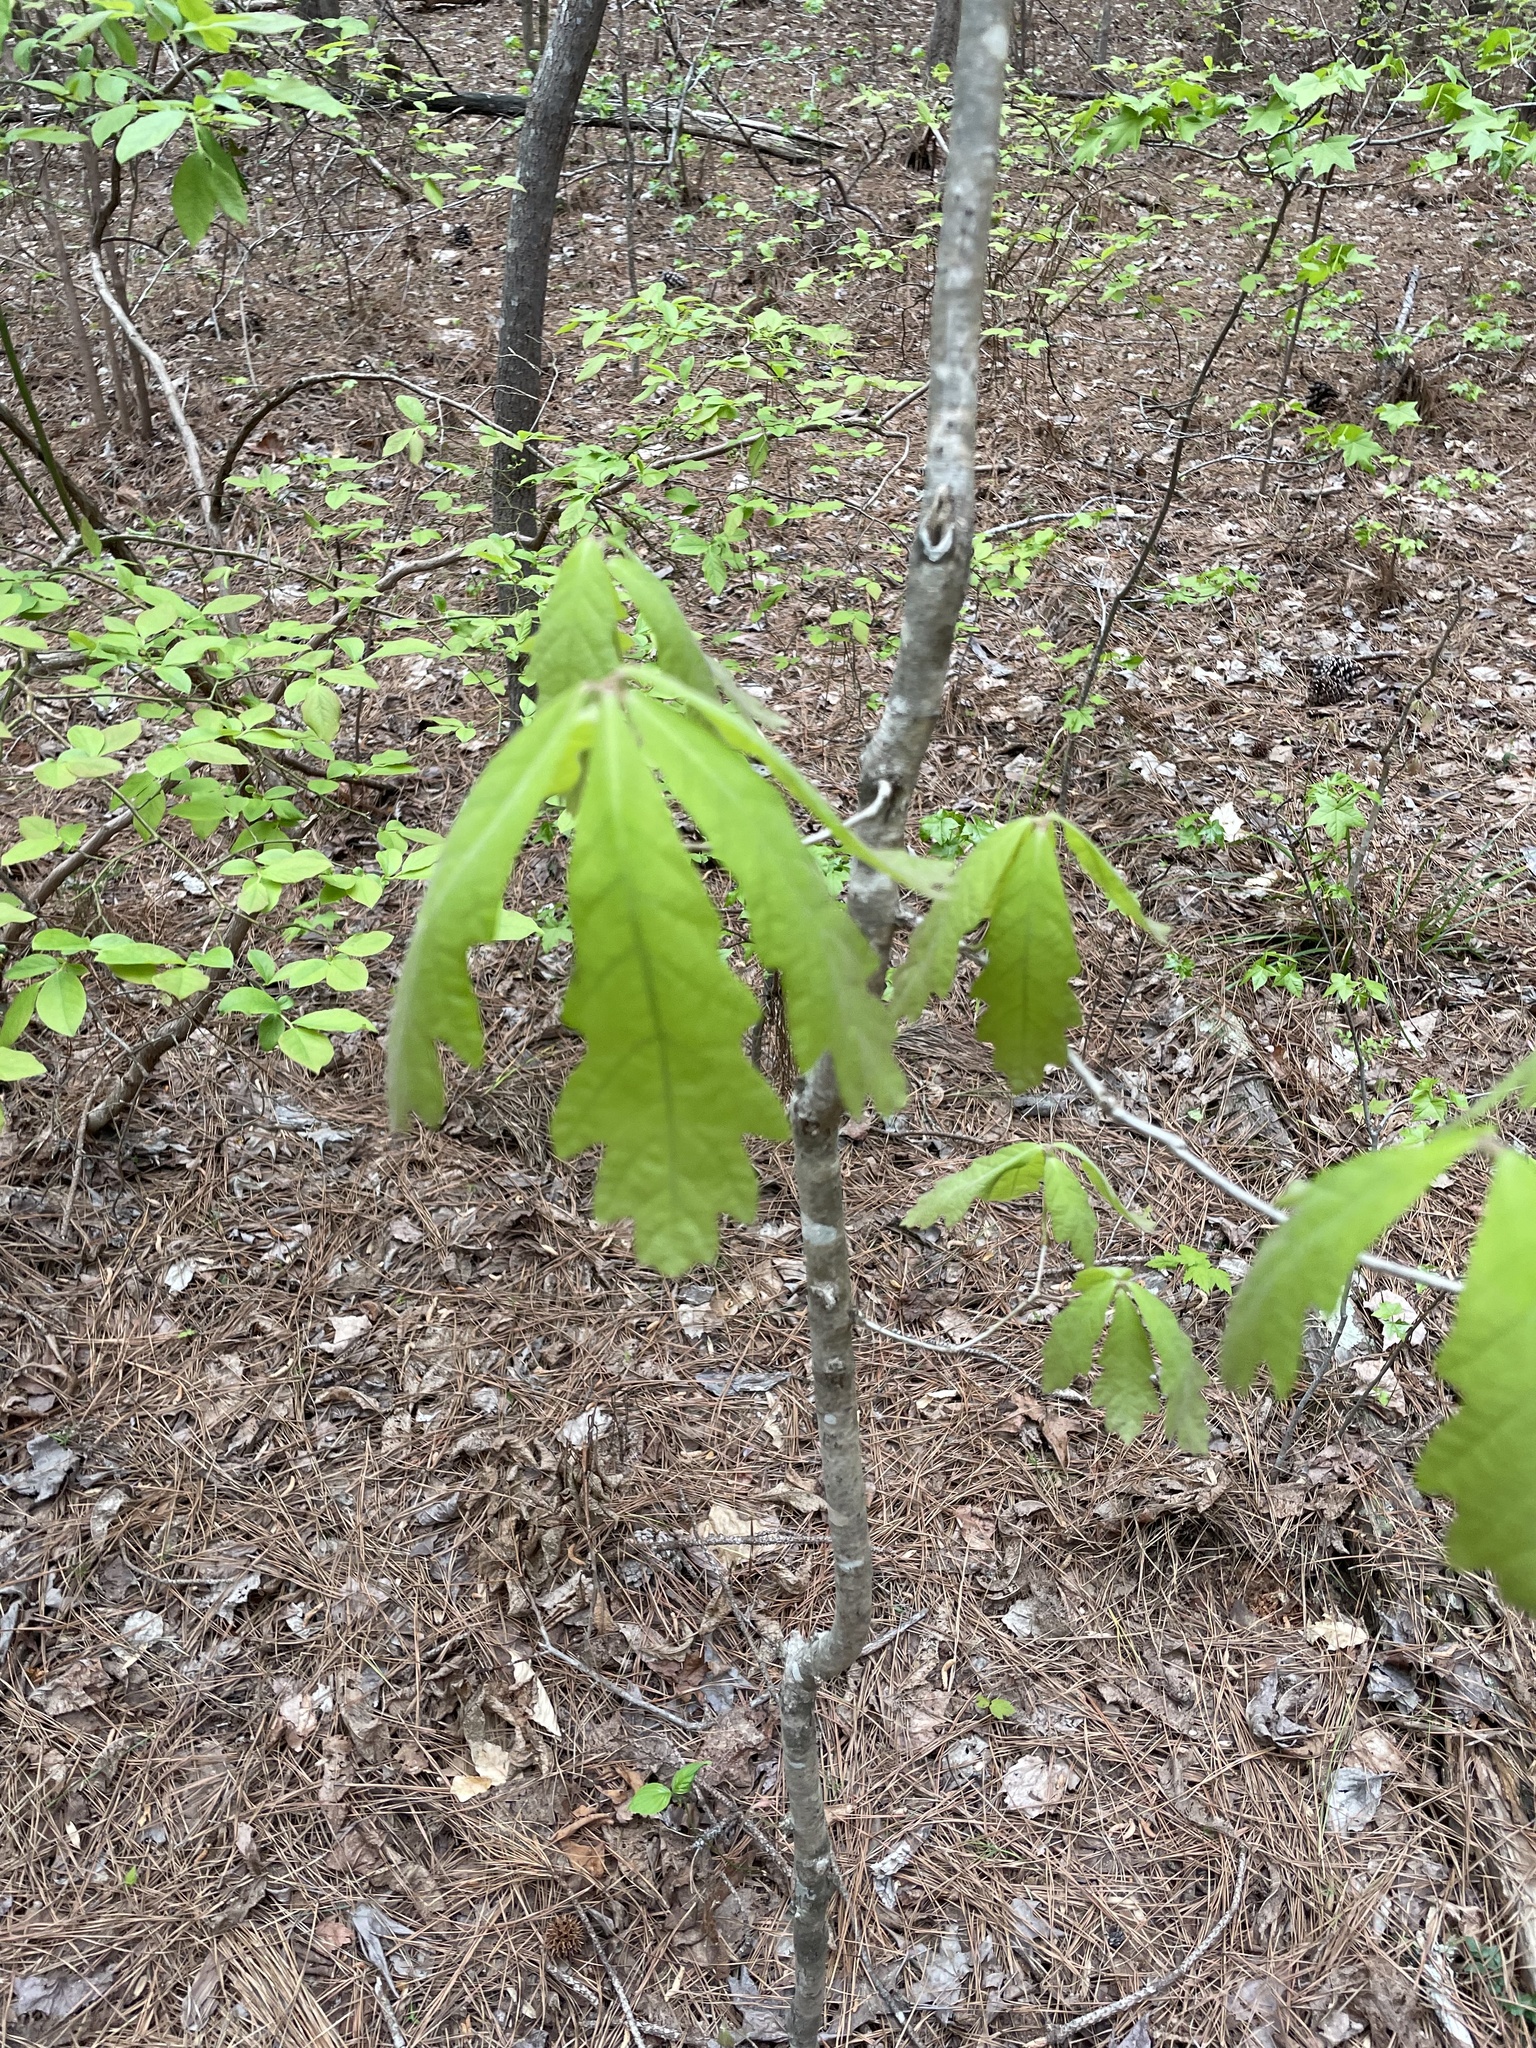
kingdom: Plantae
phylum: Tracheophyta
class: Magnoliopsida
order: Fagales
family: Fagaceae
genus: Quercus
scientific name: Quercus alba
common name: White oak
